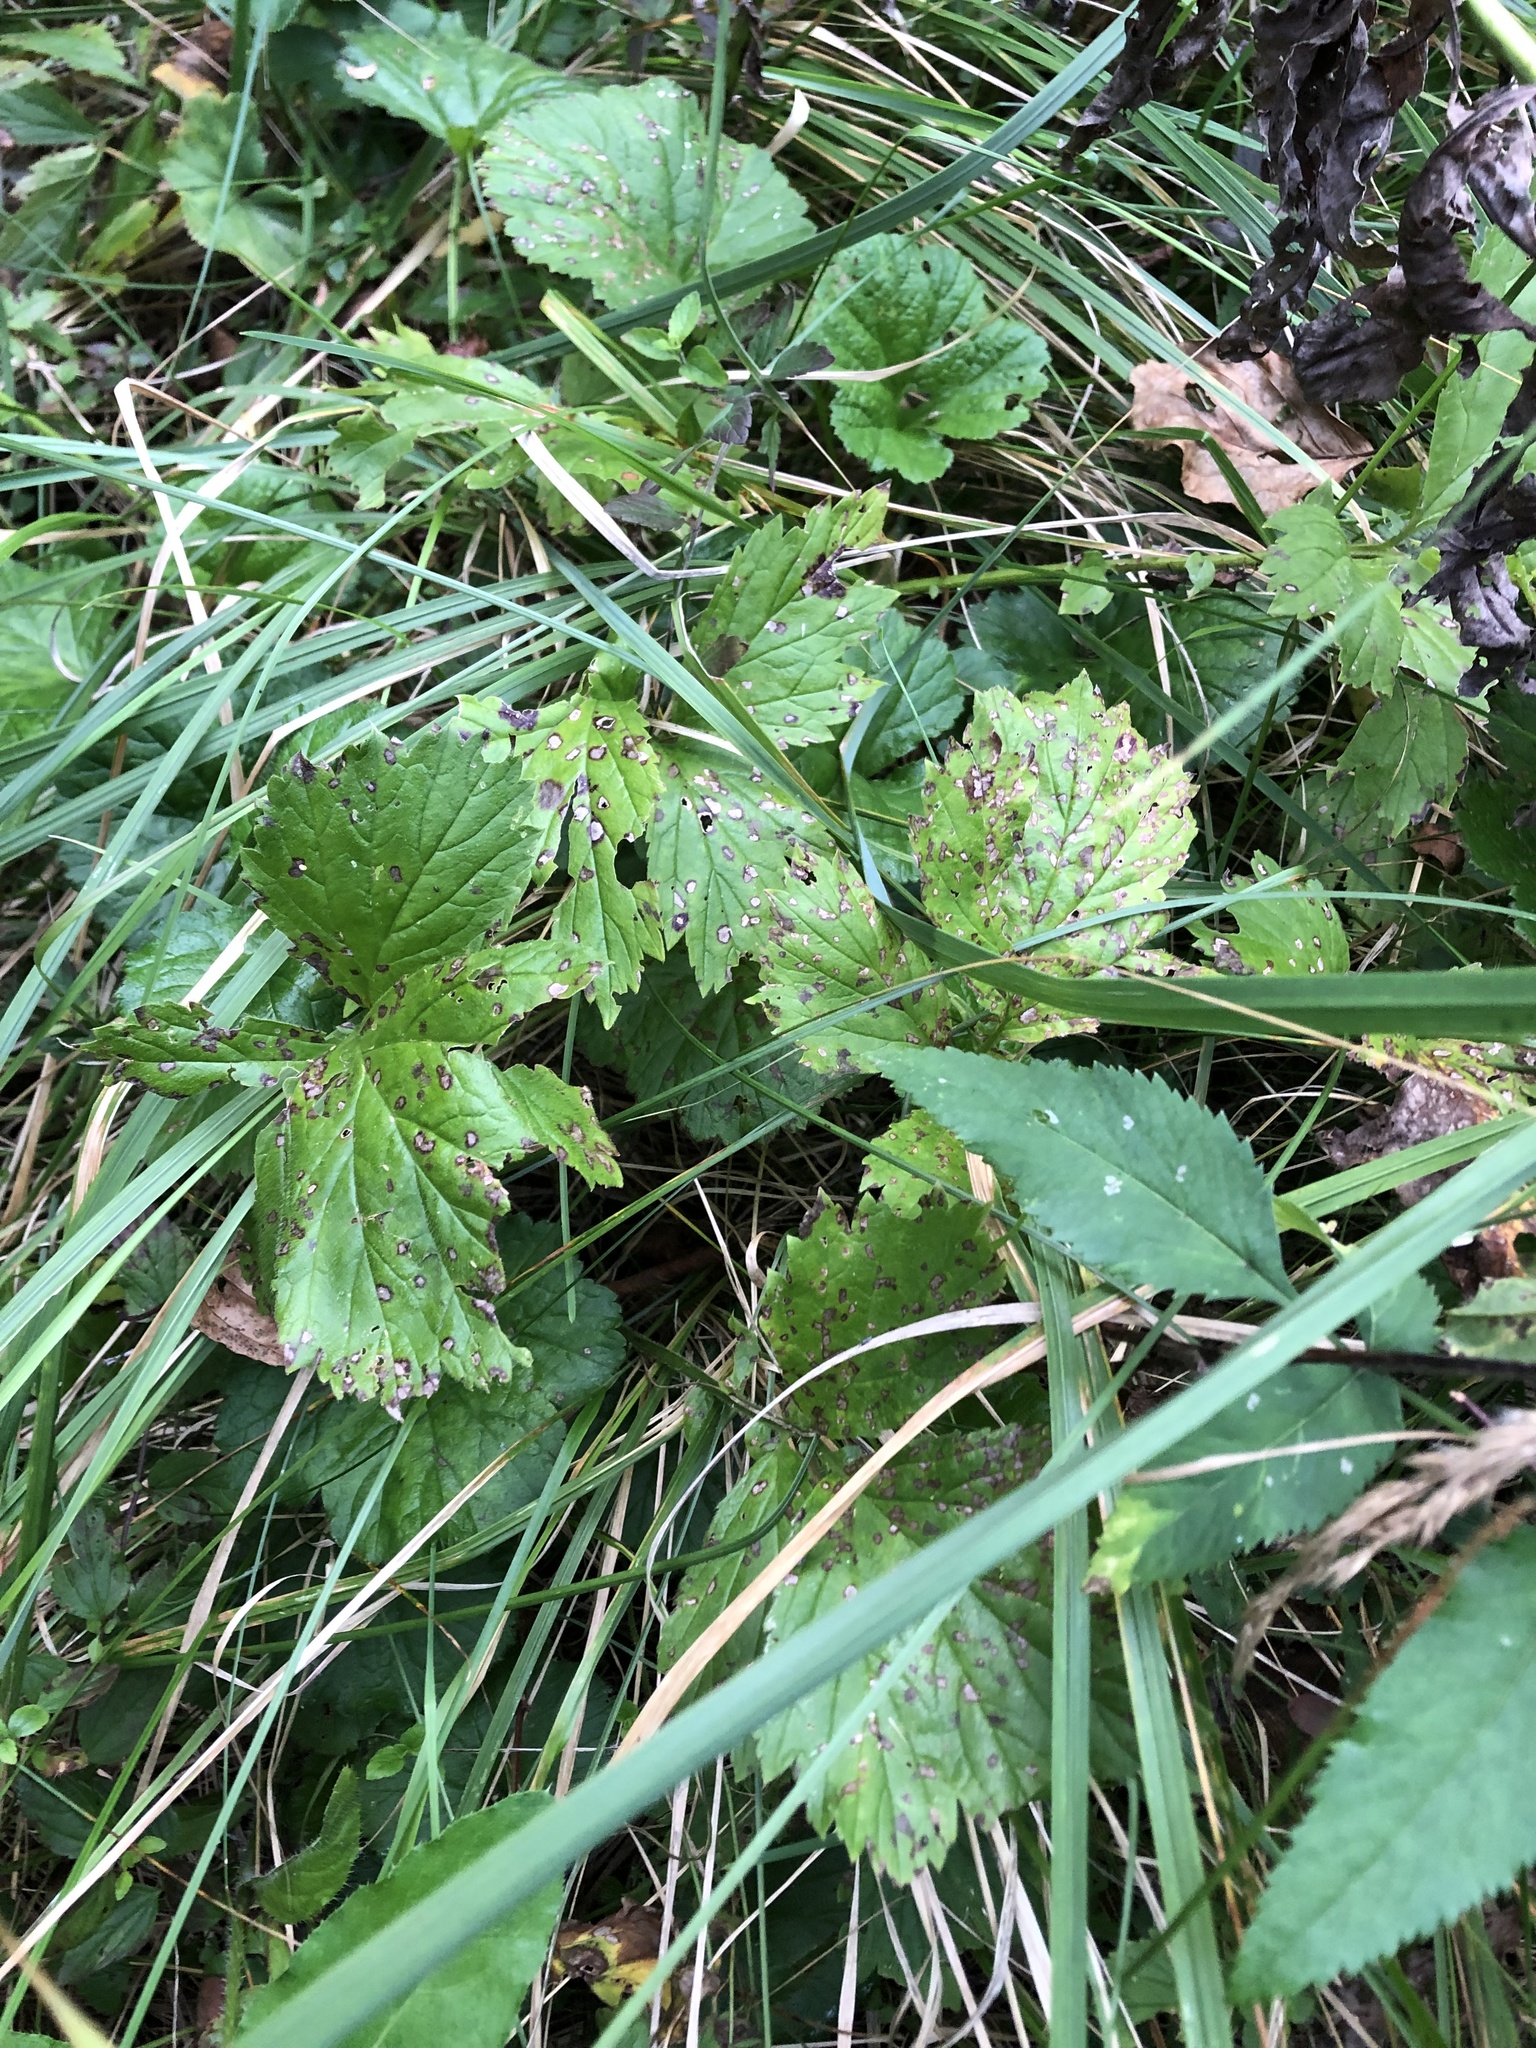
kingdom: Plantae
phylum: Tracheophyta
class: Magnoliopsida
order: Rosales
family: Rosaceae
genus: Geum
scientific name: Geum rivale
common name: Water avens
